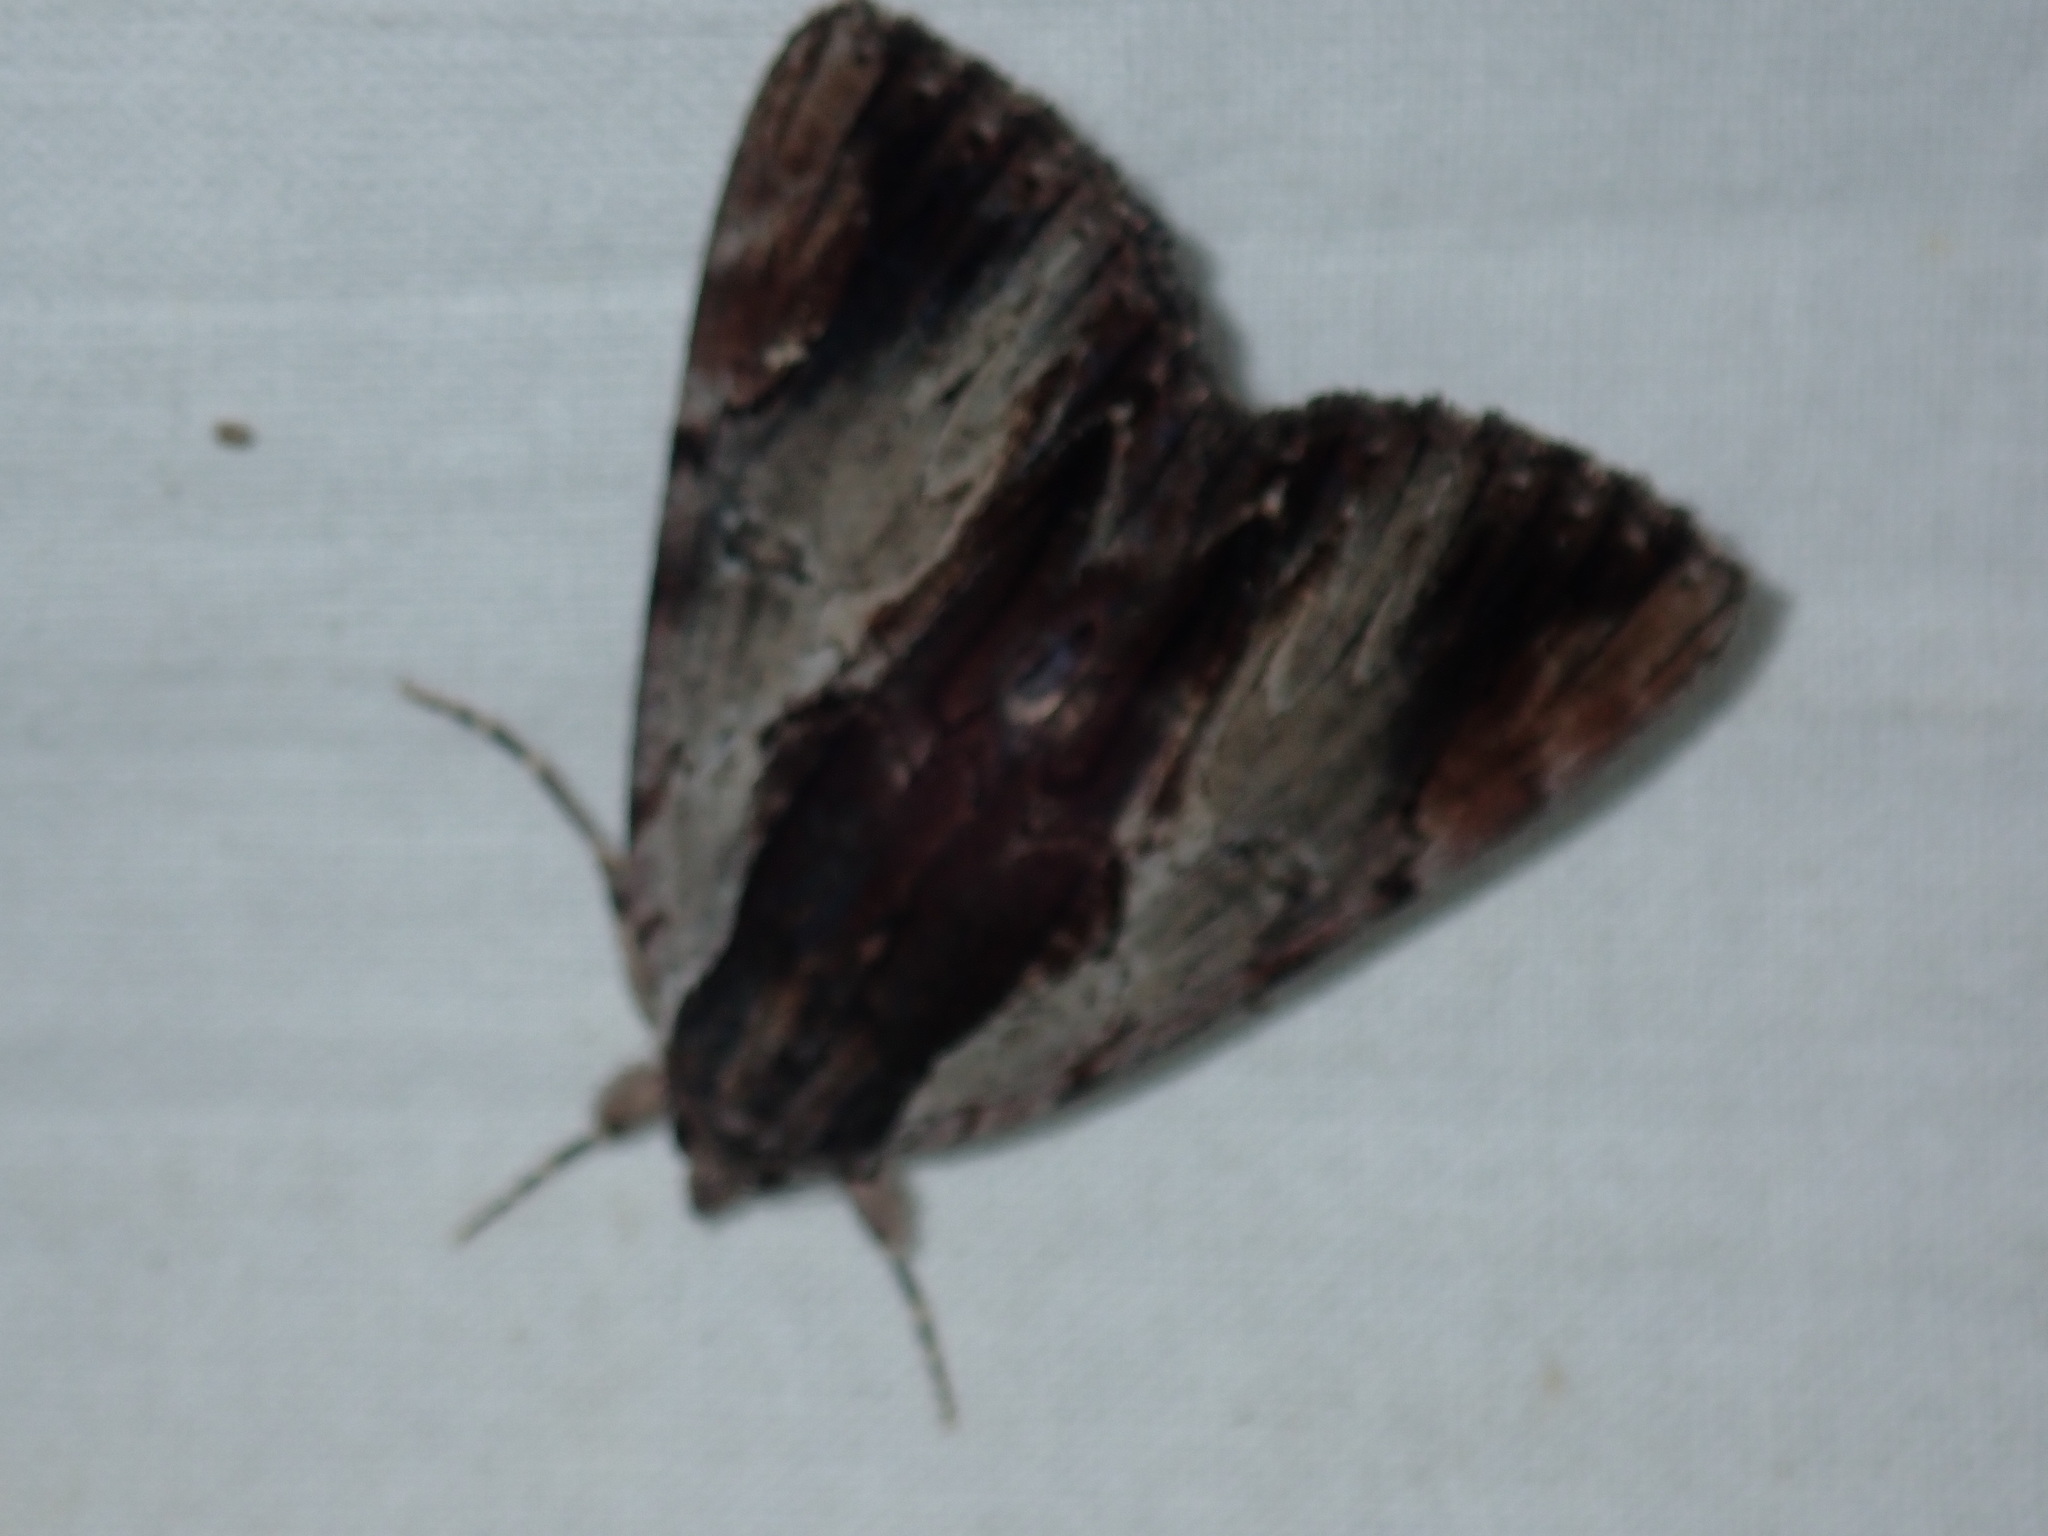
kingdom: Animalia
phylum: Arthropoda
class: Insecta
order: Lepidoptera
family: Erebidae
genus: Catocala
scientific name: Catocala ultronia
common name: Ultronia underwing
